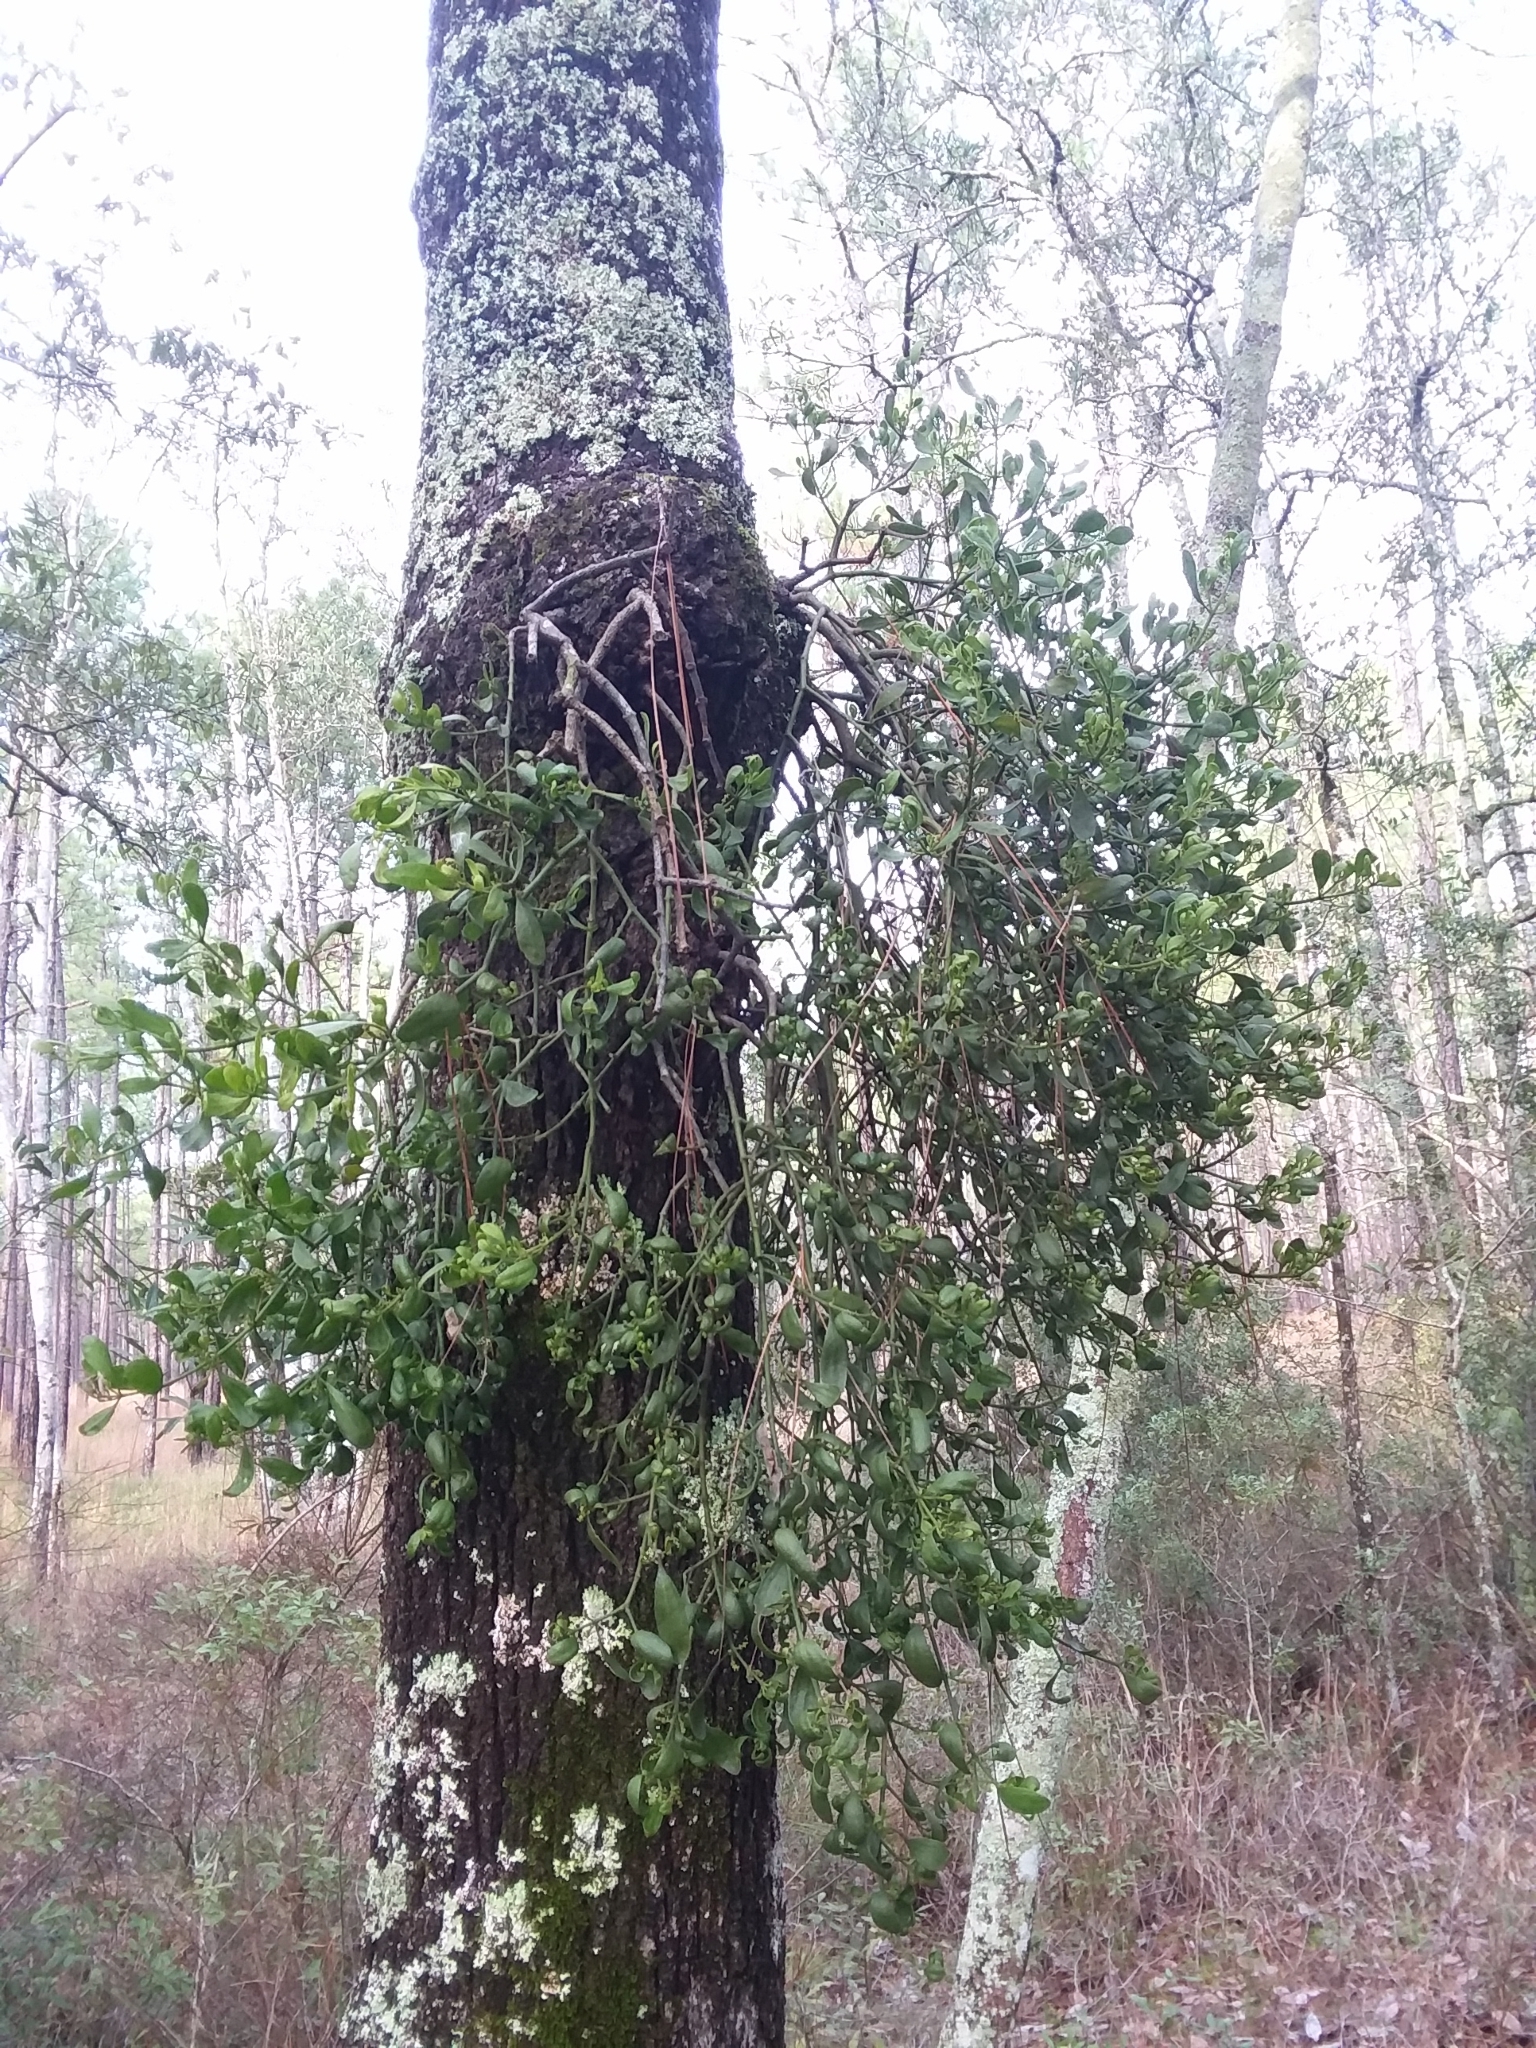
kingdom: Plantae
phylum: Tracheophyta
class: Magnoliopsida
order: Santalales
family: Viscaceae
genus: Phoradendron
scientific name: Phoradendron leucarpum
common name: Pacific mistletoe
